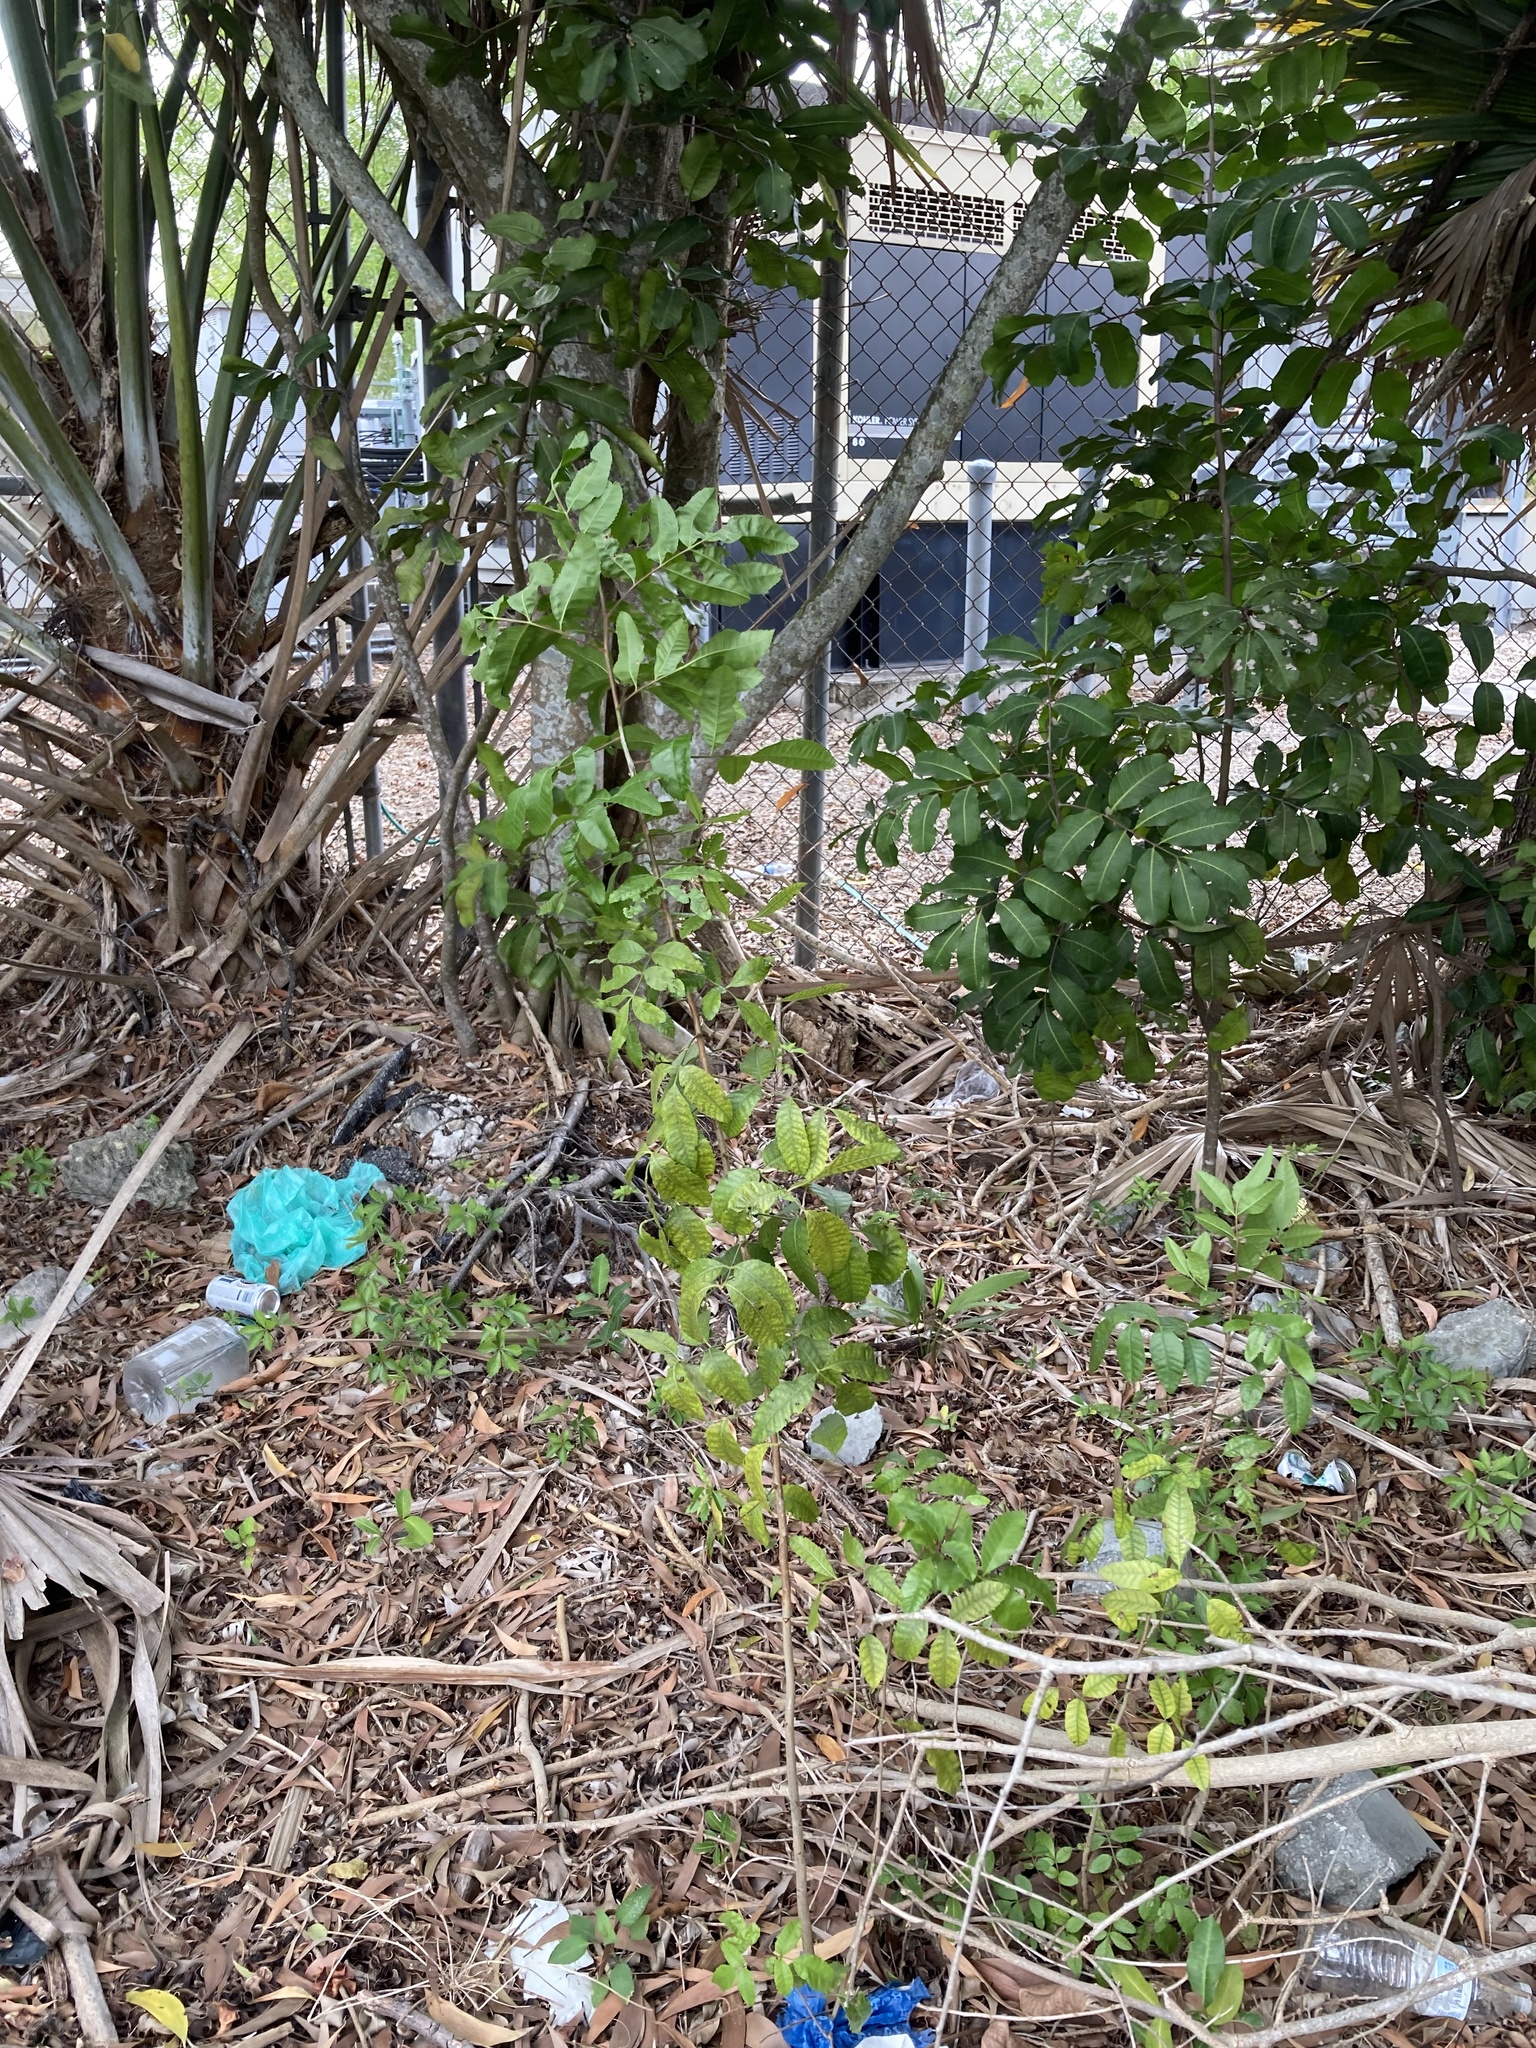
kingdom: Plantae
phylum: Tracheophyta
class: Magnoliopsida
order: Sapindales
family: Anacardiaceae
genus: Schinus
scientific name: Schinus terebinthifolia
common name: Brazilian peppertree
